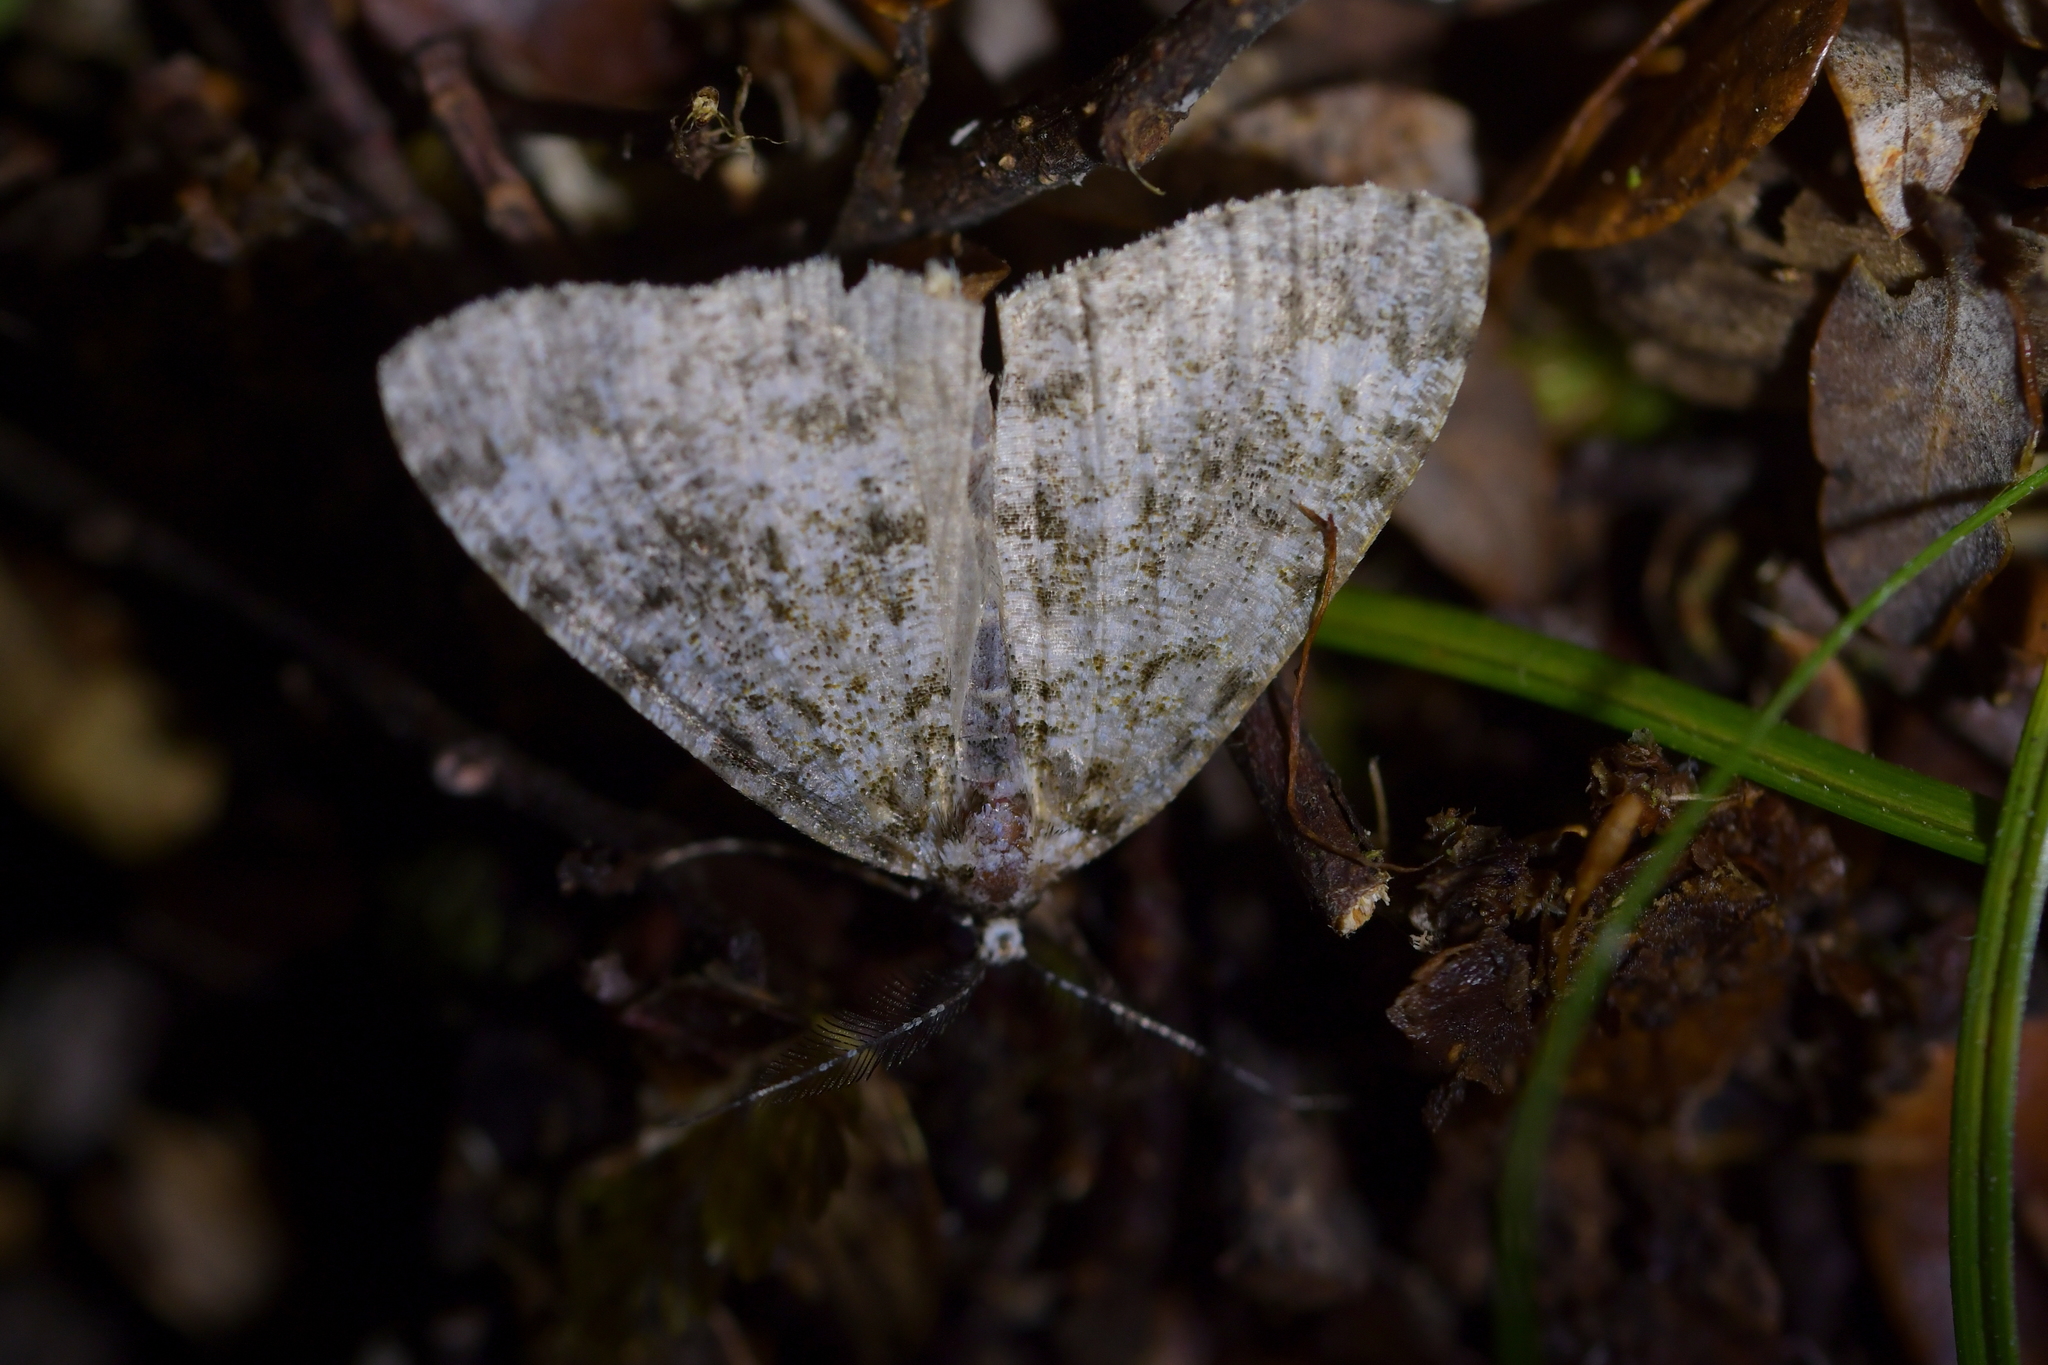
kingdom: Animalia
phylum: Arthropoda
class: Insecta
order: Lepidoptera
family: Geometridae
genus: Pseudocoremia
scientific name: Pseudocoremia monacha
